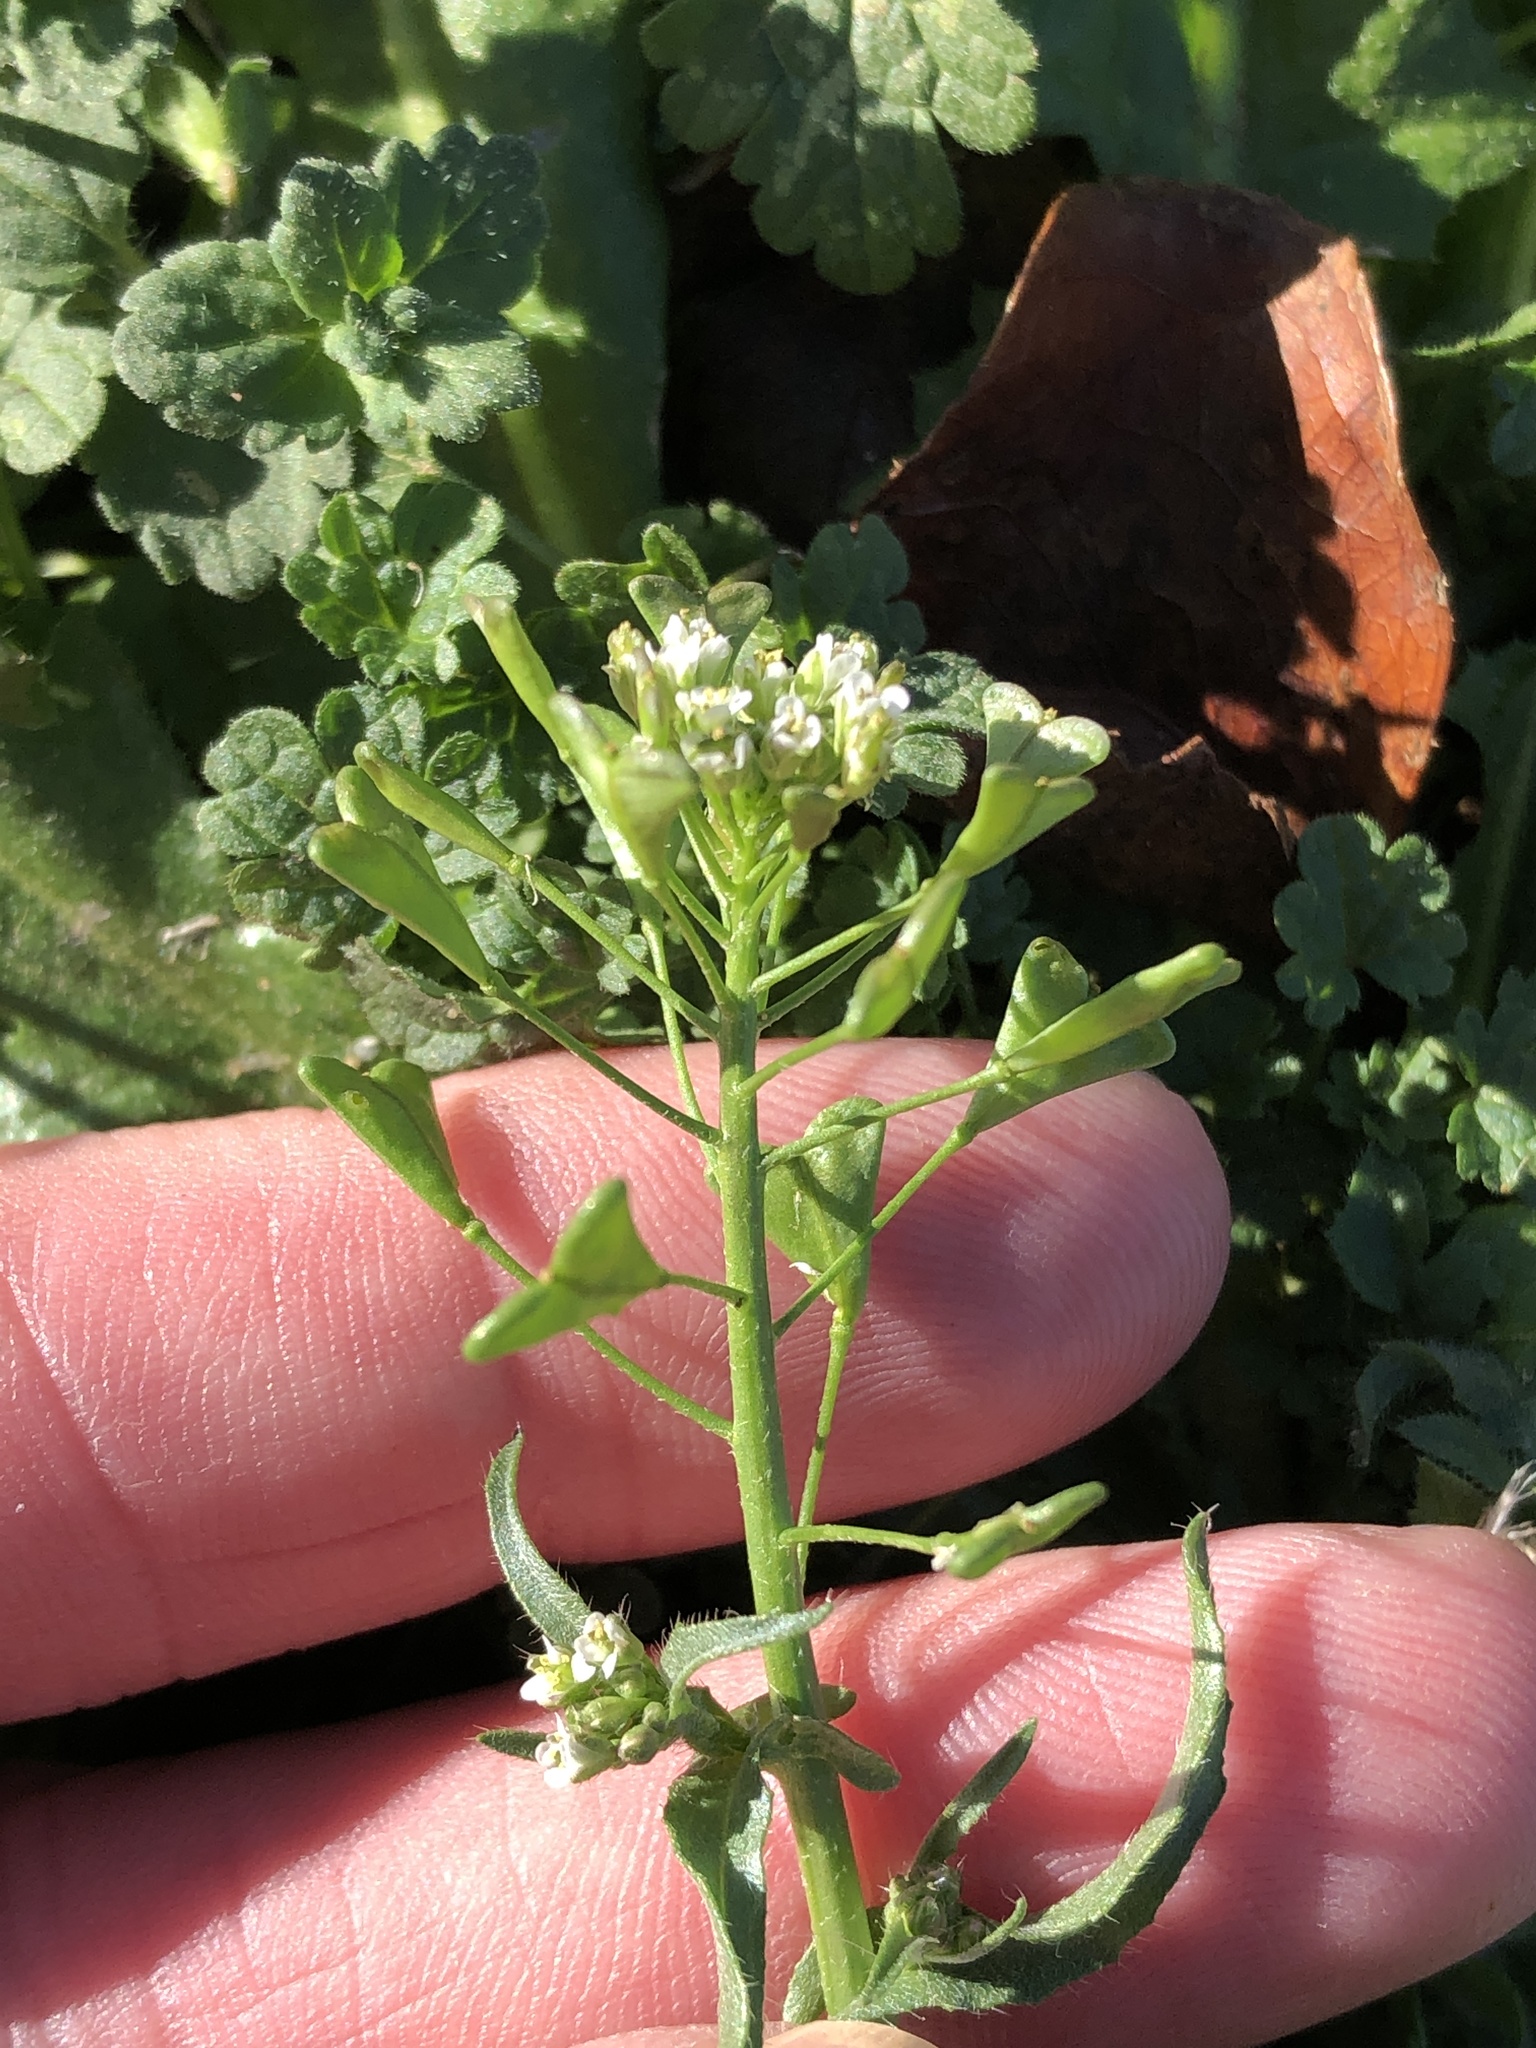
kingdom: Plantae
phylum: Tracheophyta
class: Magnoliopsida
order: Brassicales
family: Brassicaceae
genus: Capsella
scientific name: Capsella bursa-pastoris
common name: Shepherd's purse
